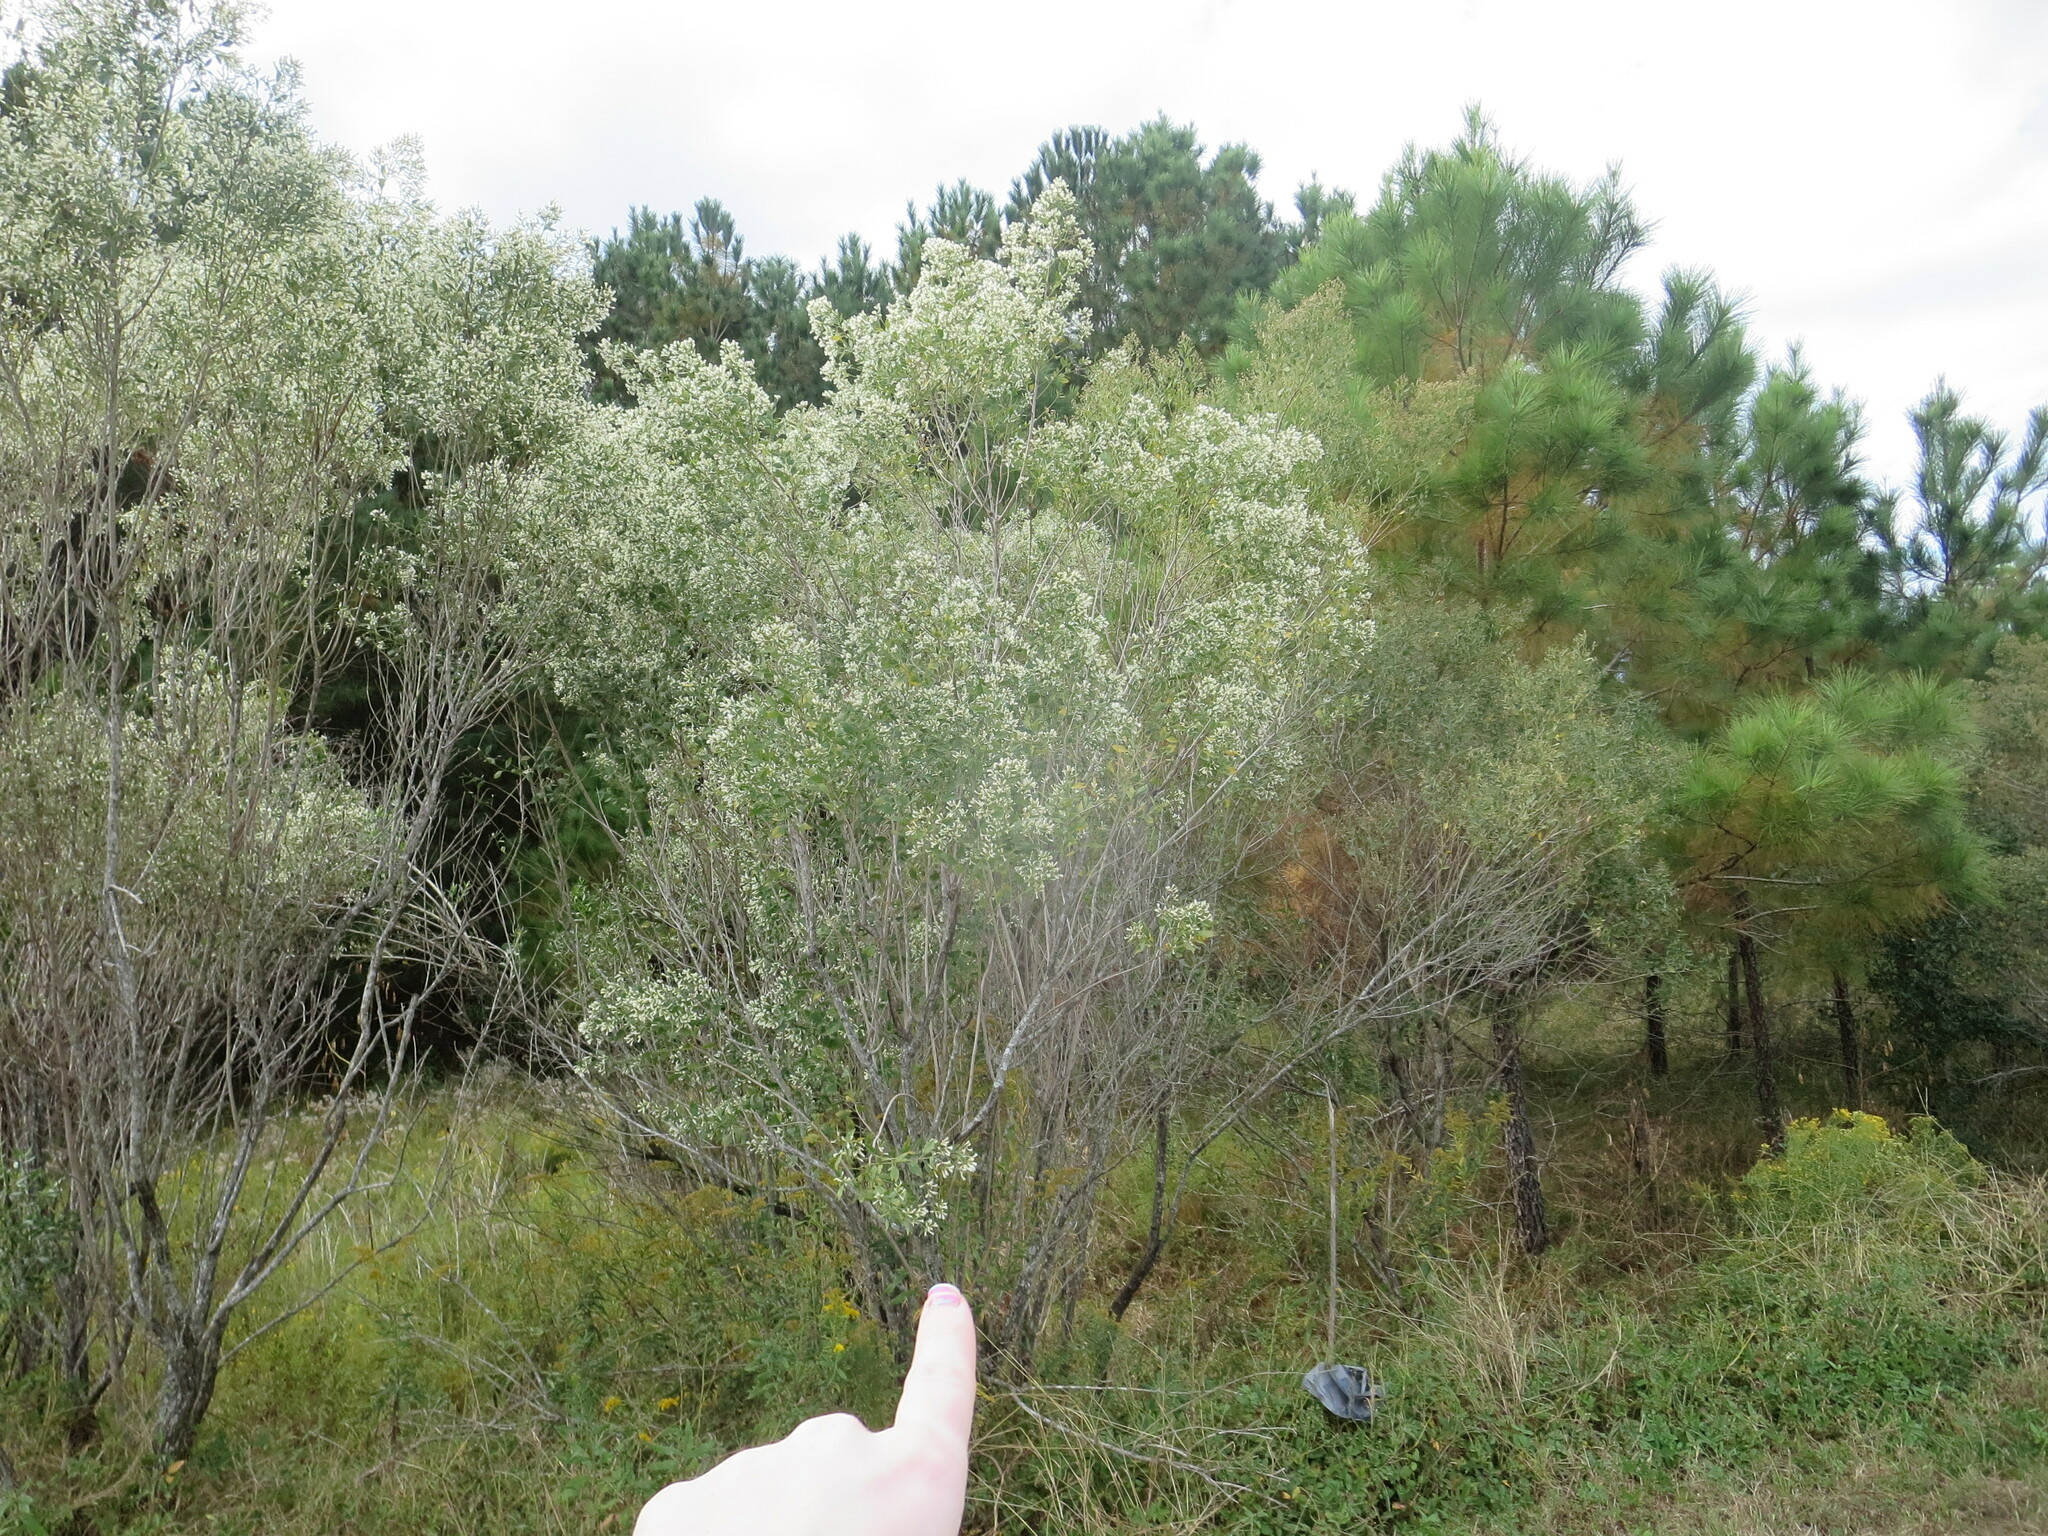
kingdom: Plantae
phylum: Tracheophyta
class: Magnoliopsida
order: Asterales
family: Asteraceae
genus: Baccharis
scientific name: Baccharis halimifolia
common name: Eastern baccharis
